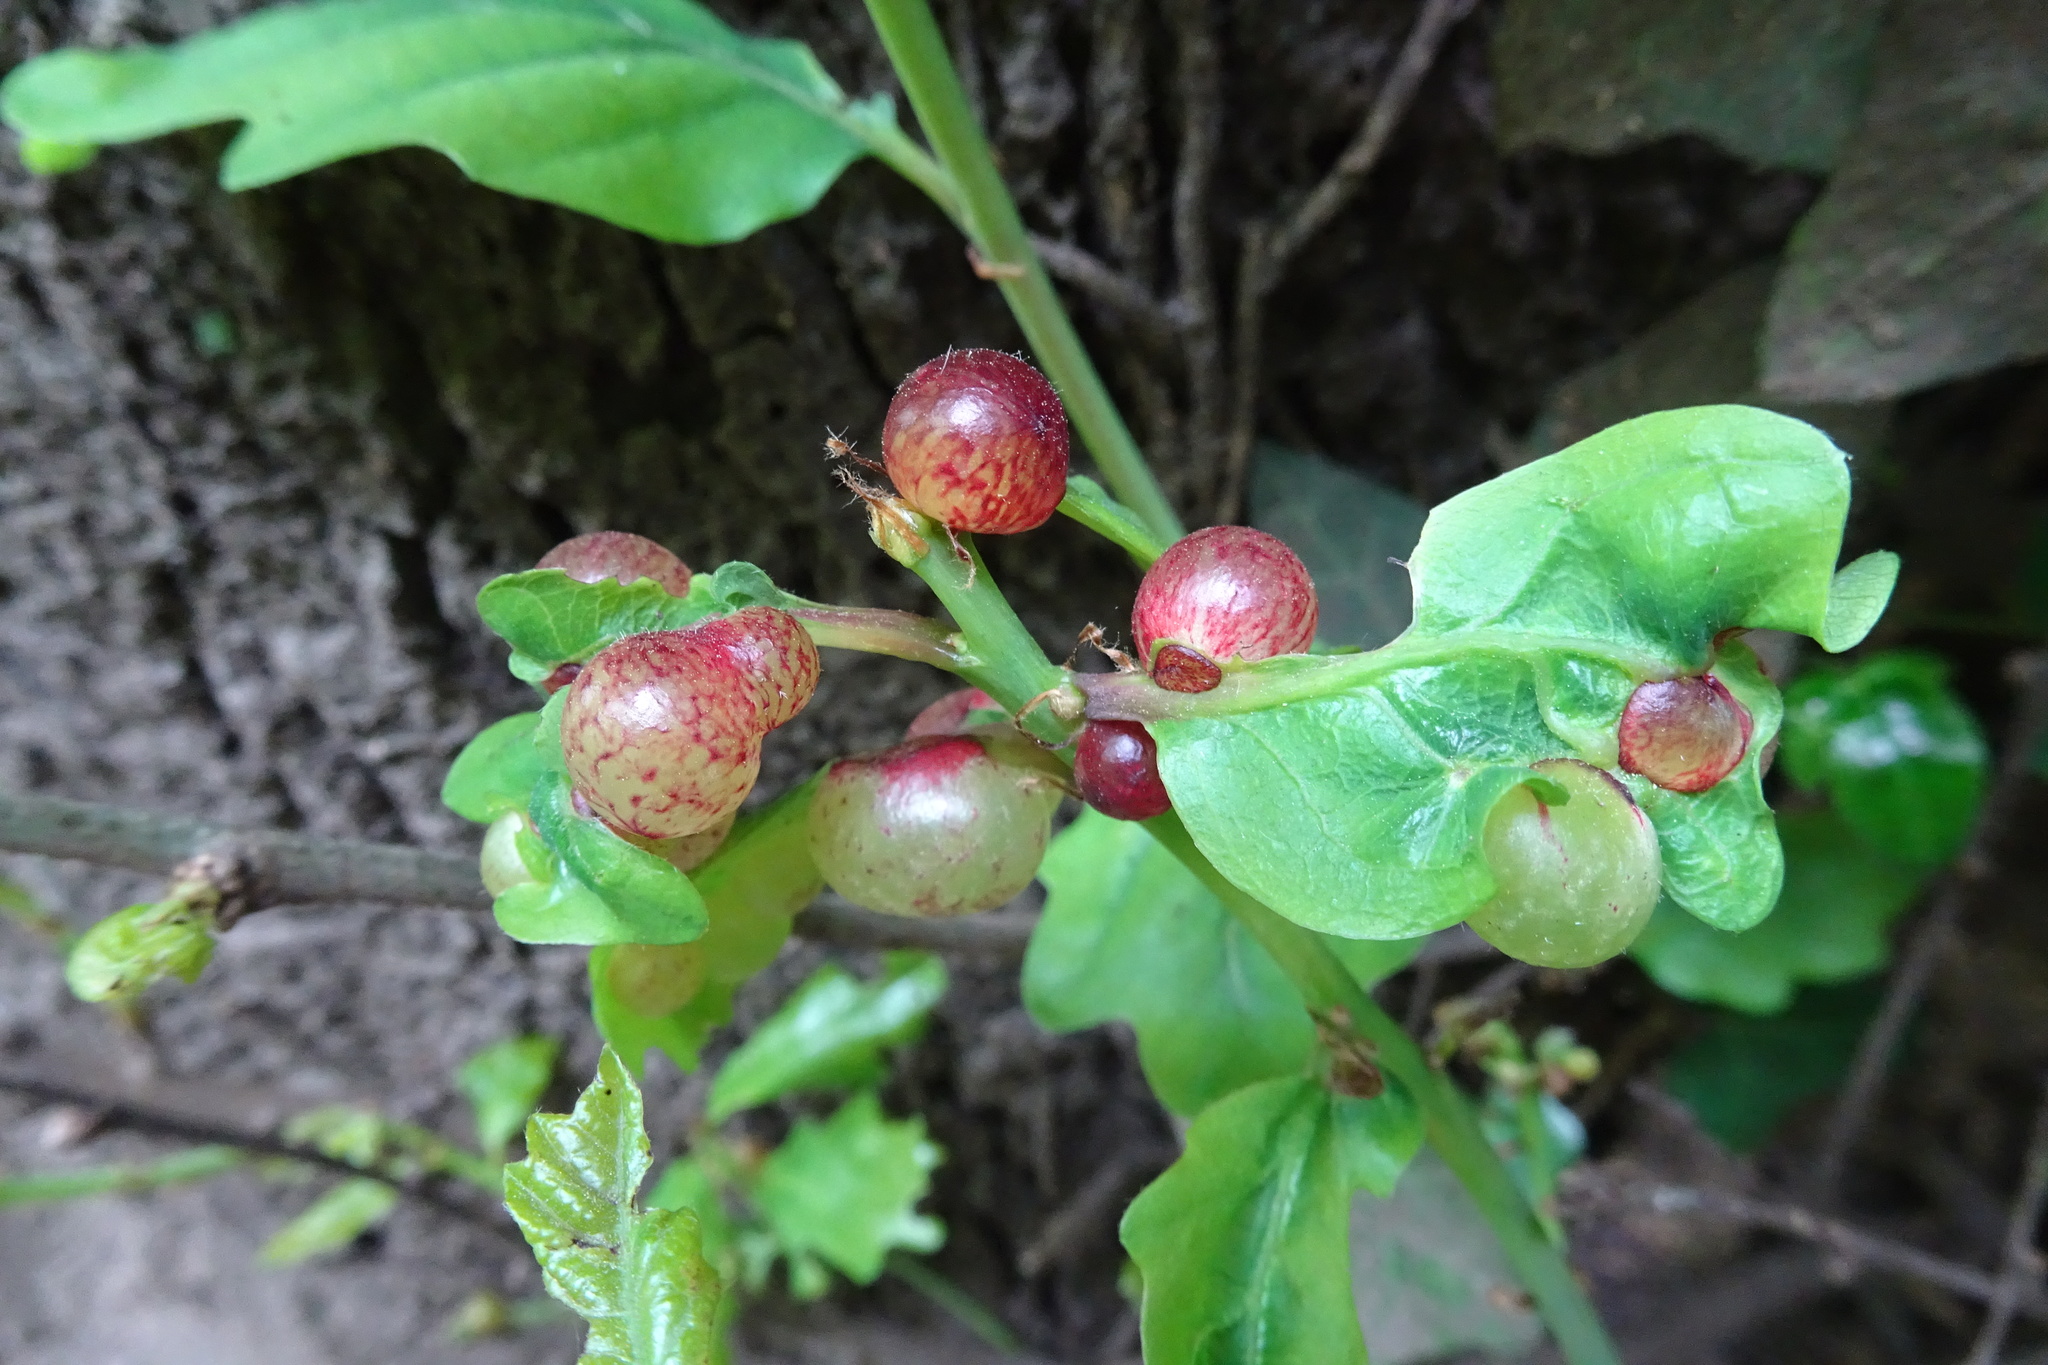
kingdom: Animalia
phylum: Arthropoda
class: Insecta
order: Hymenoptera
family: Cynipidae
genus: Neuroterus
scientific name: Neuroterus quercusbaccarum
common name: Common spangle gall
